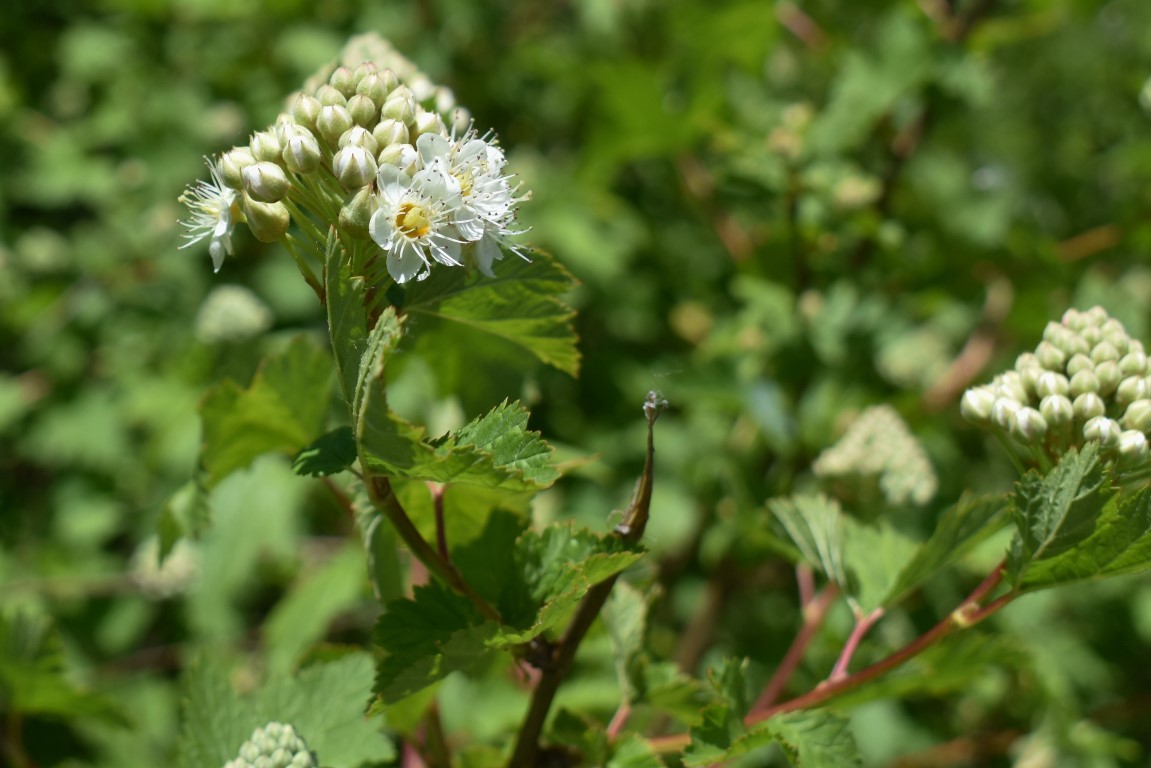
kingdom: Plantae
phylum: Tracheophyta
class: Magnoliopsida
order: Rosales
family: Rosaceae
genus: Physocarpus
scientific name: Physocarpus capitatus
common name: Pacific ninebark
